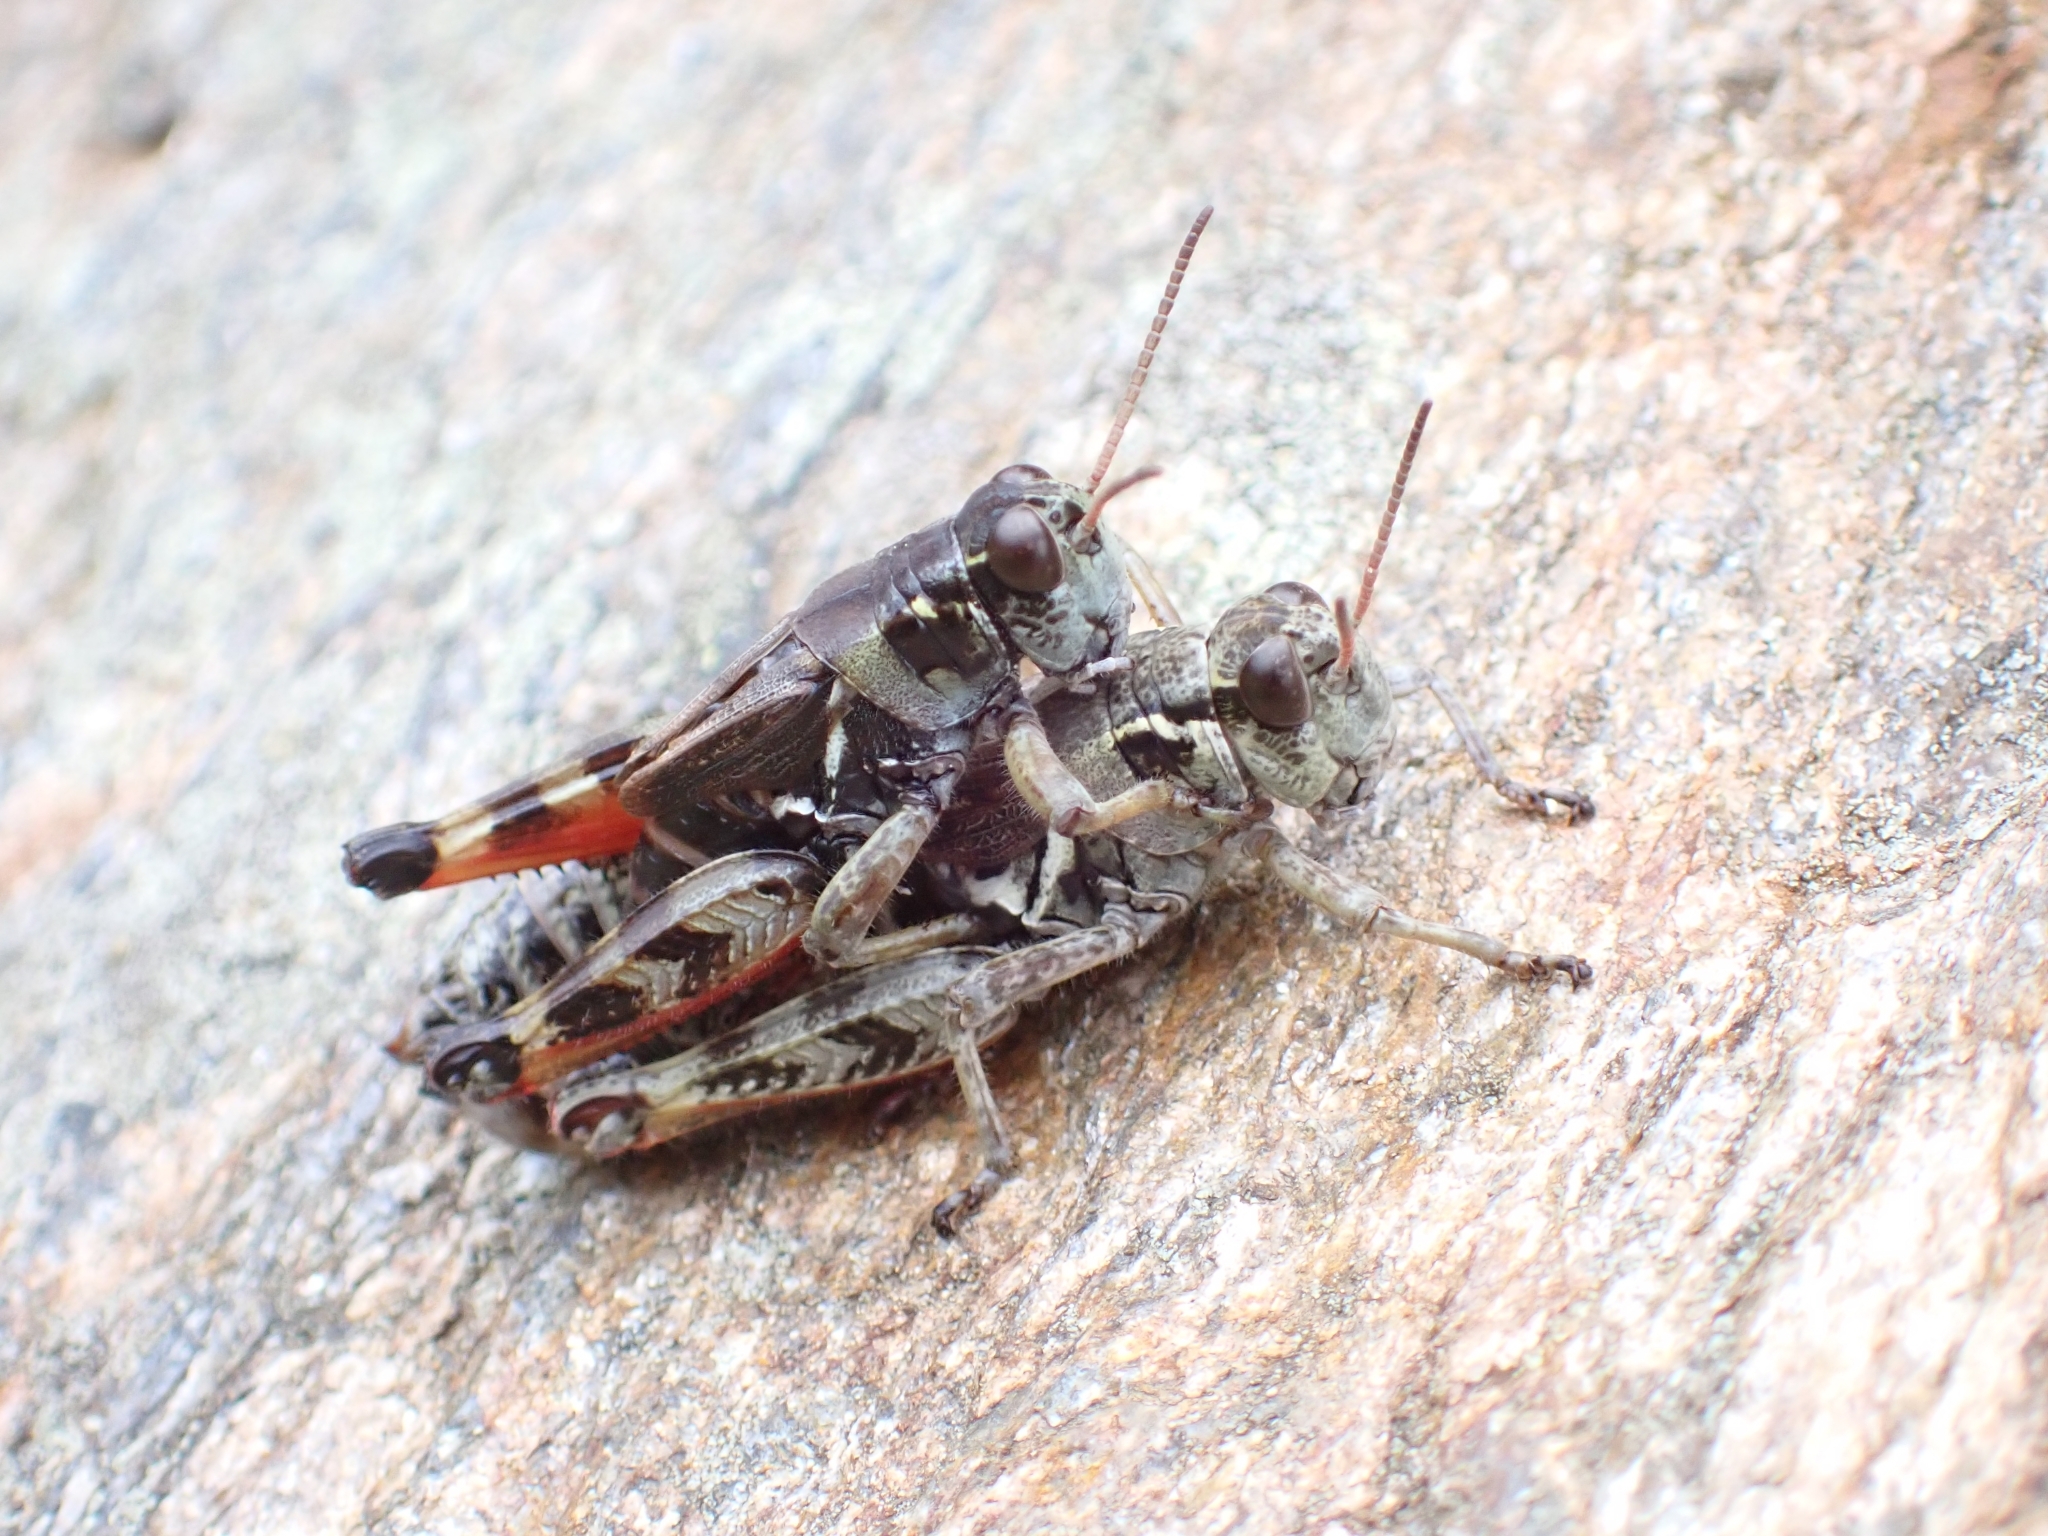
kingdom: Animalia
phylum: Arthropoda
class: Insecta
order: Orthoptera
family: Acrididae
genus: Bohemanella
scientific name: Bohemanella frigida
